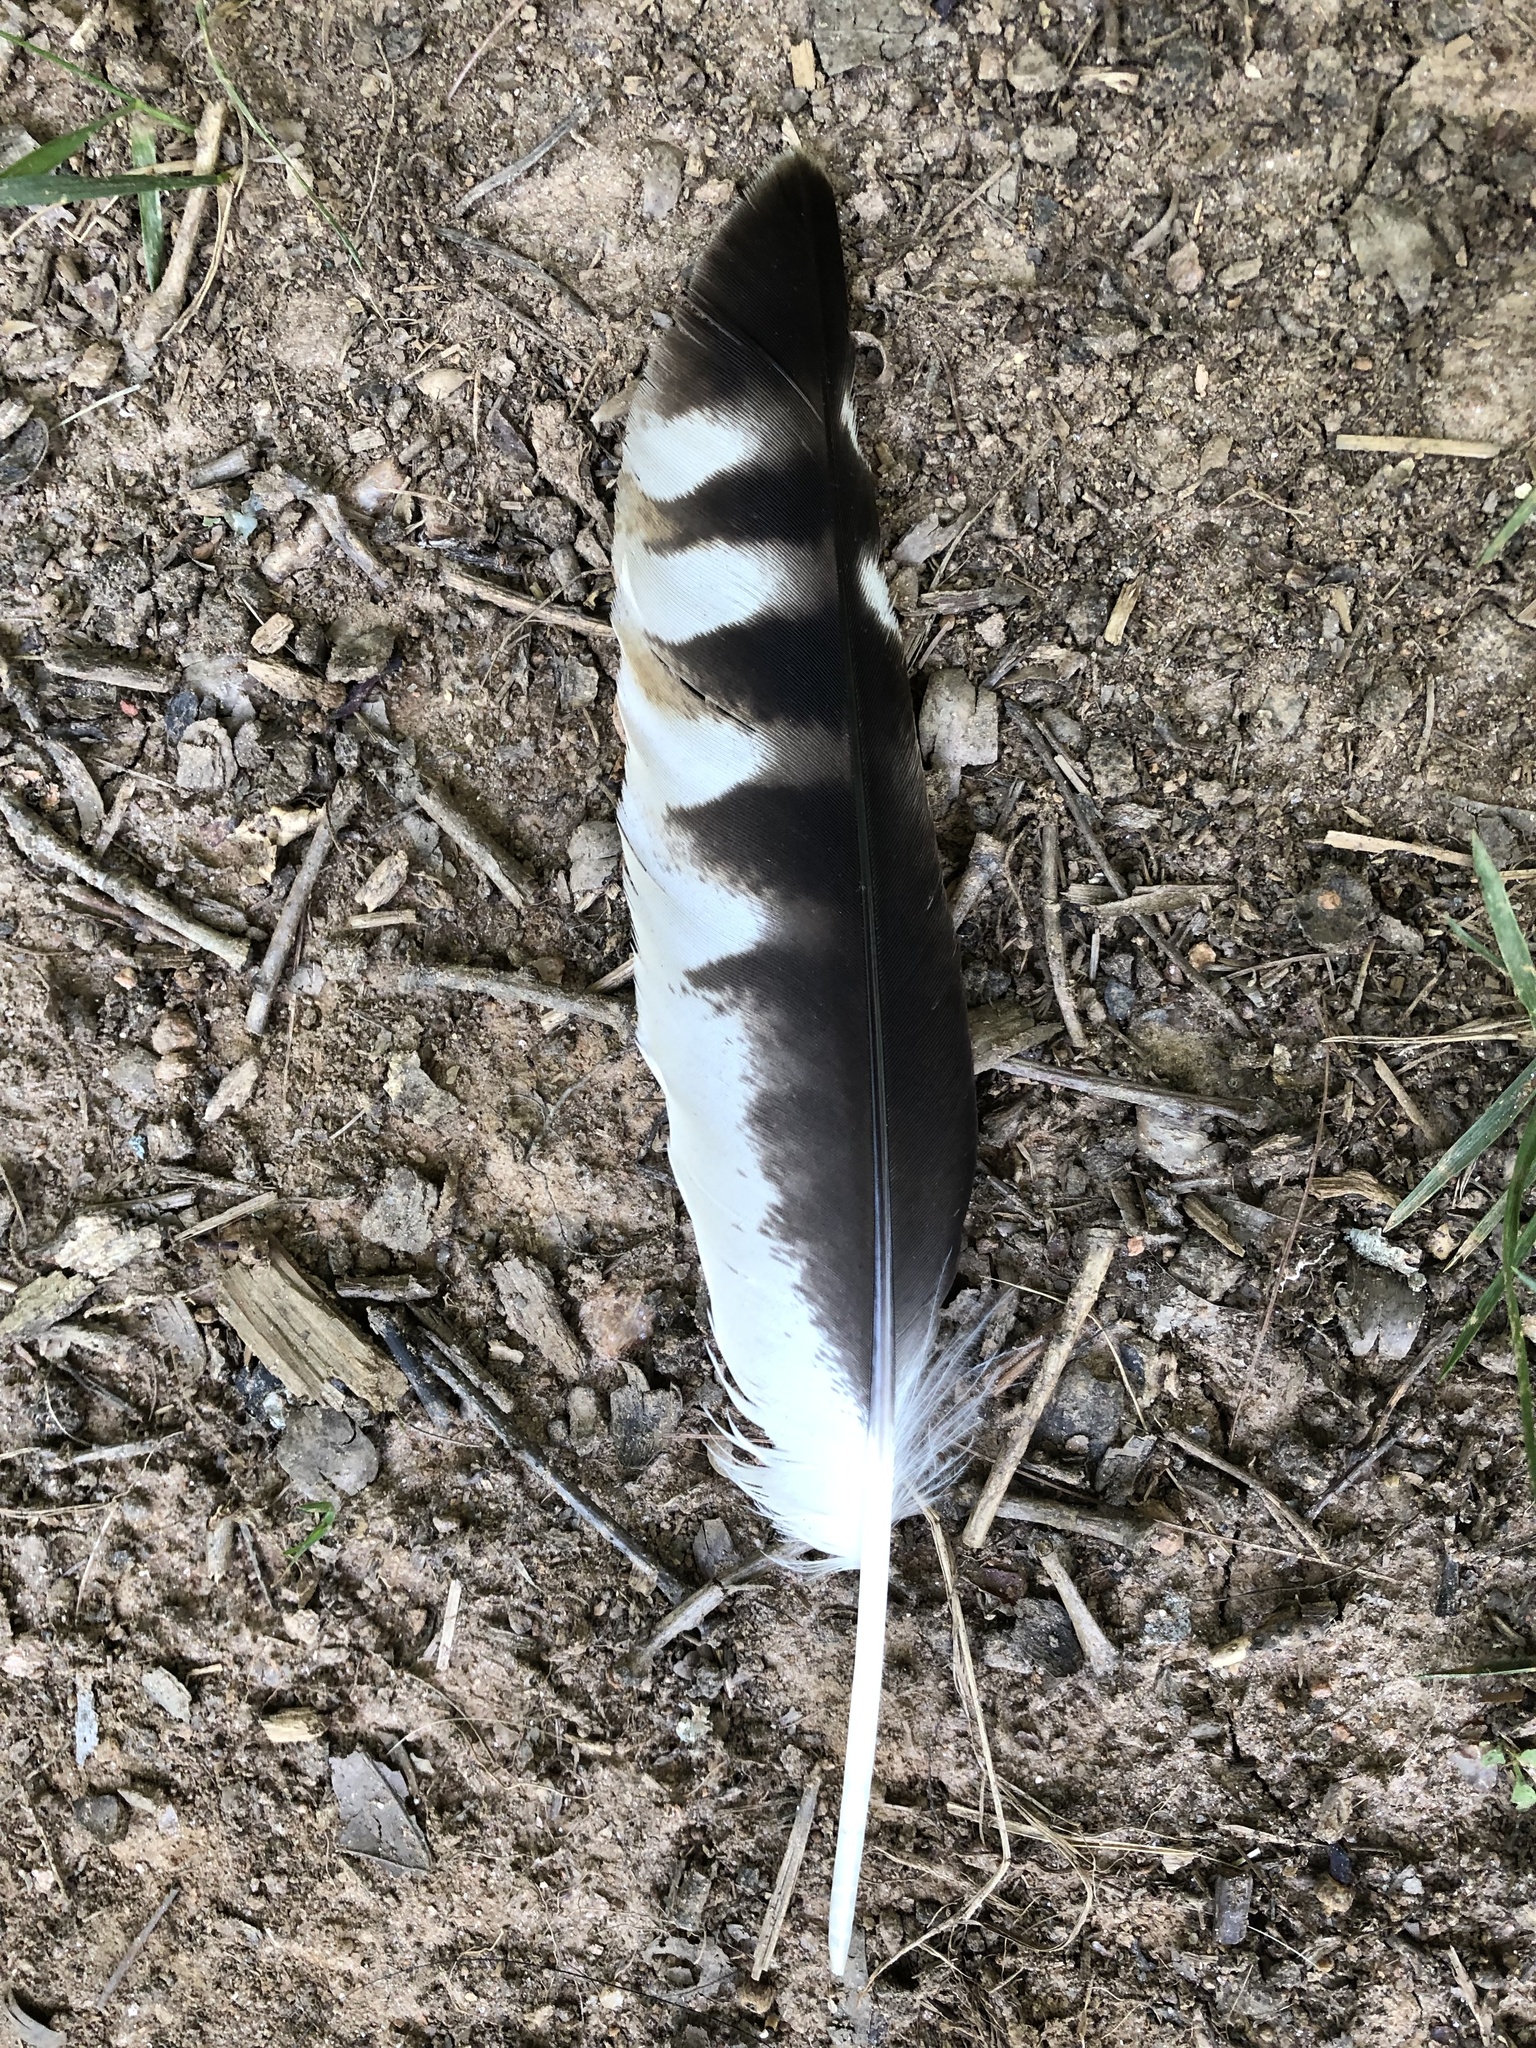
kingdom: Animalia
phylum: Chordata
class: Aves
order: Accipitriformes
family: Accipitridae
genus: Buteo
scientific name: Buteo lineatus
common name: Red-shouldered hawk
